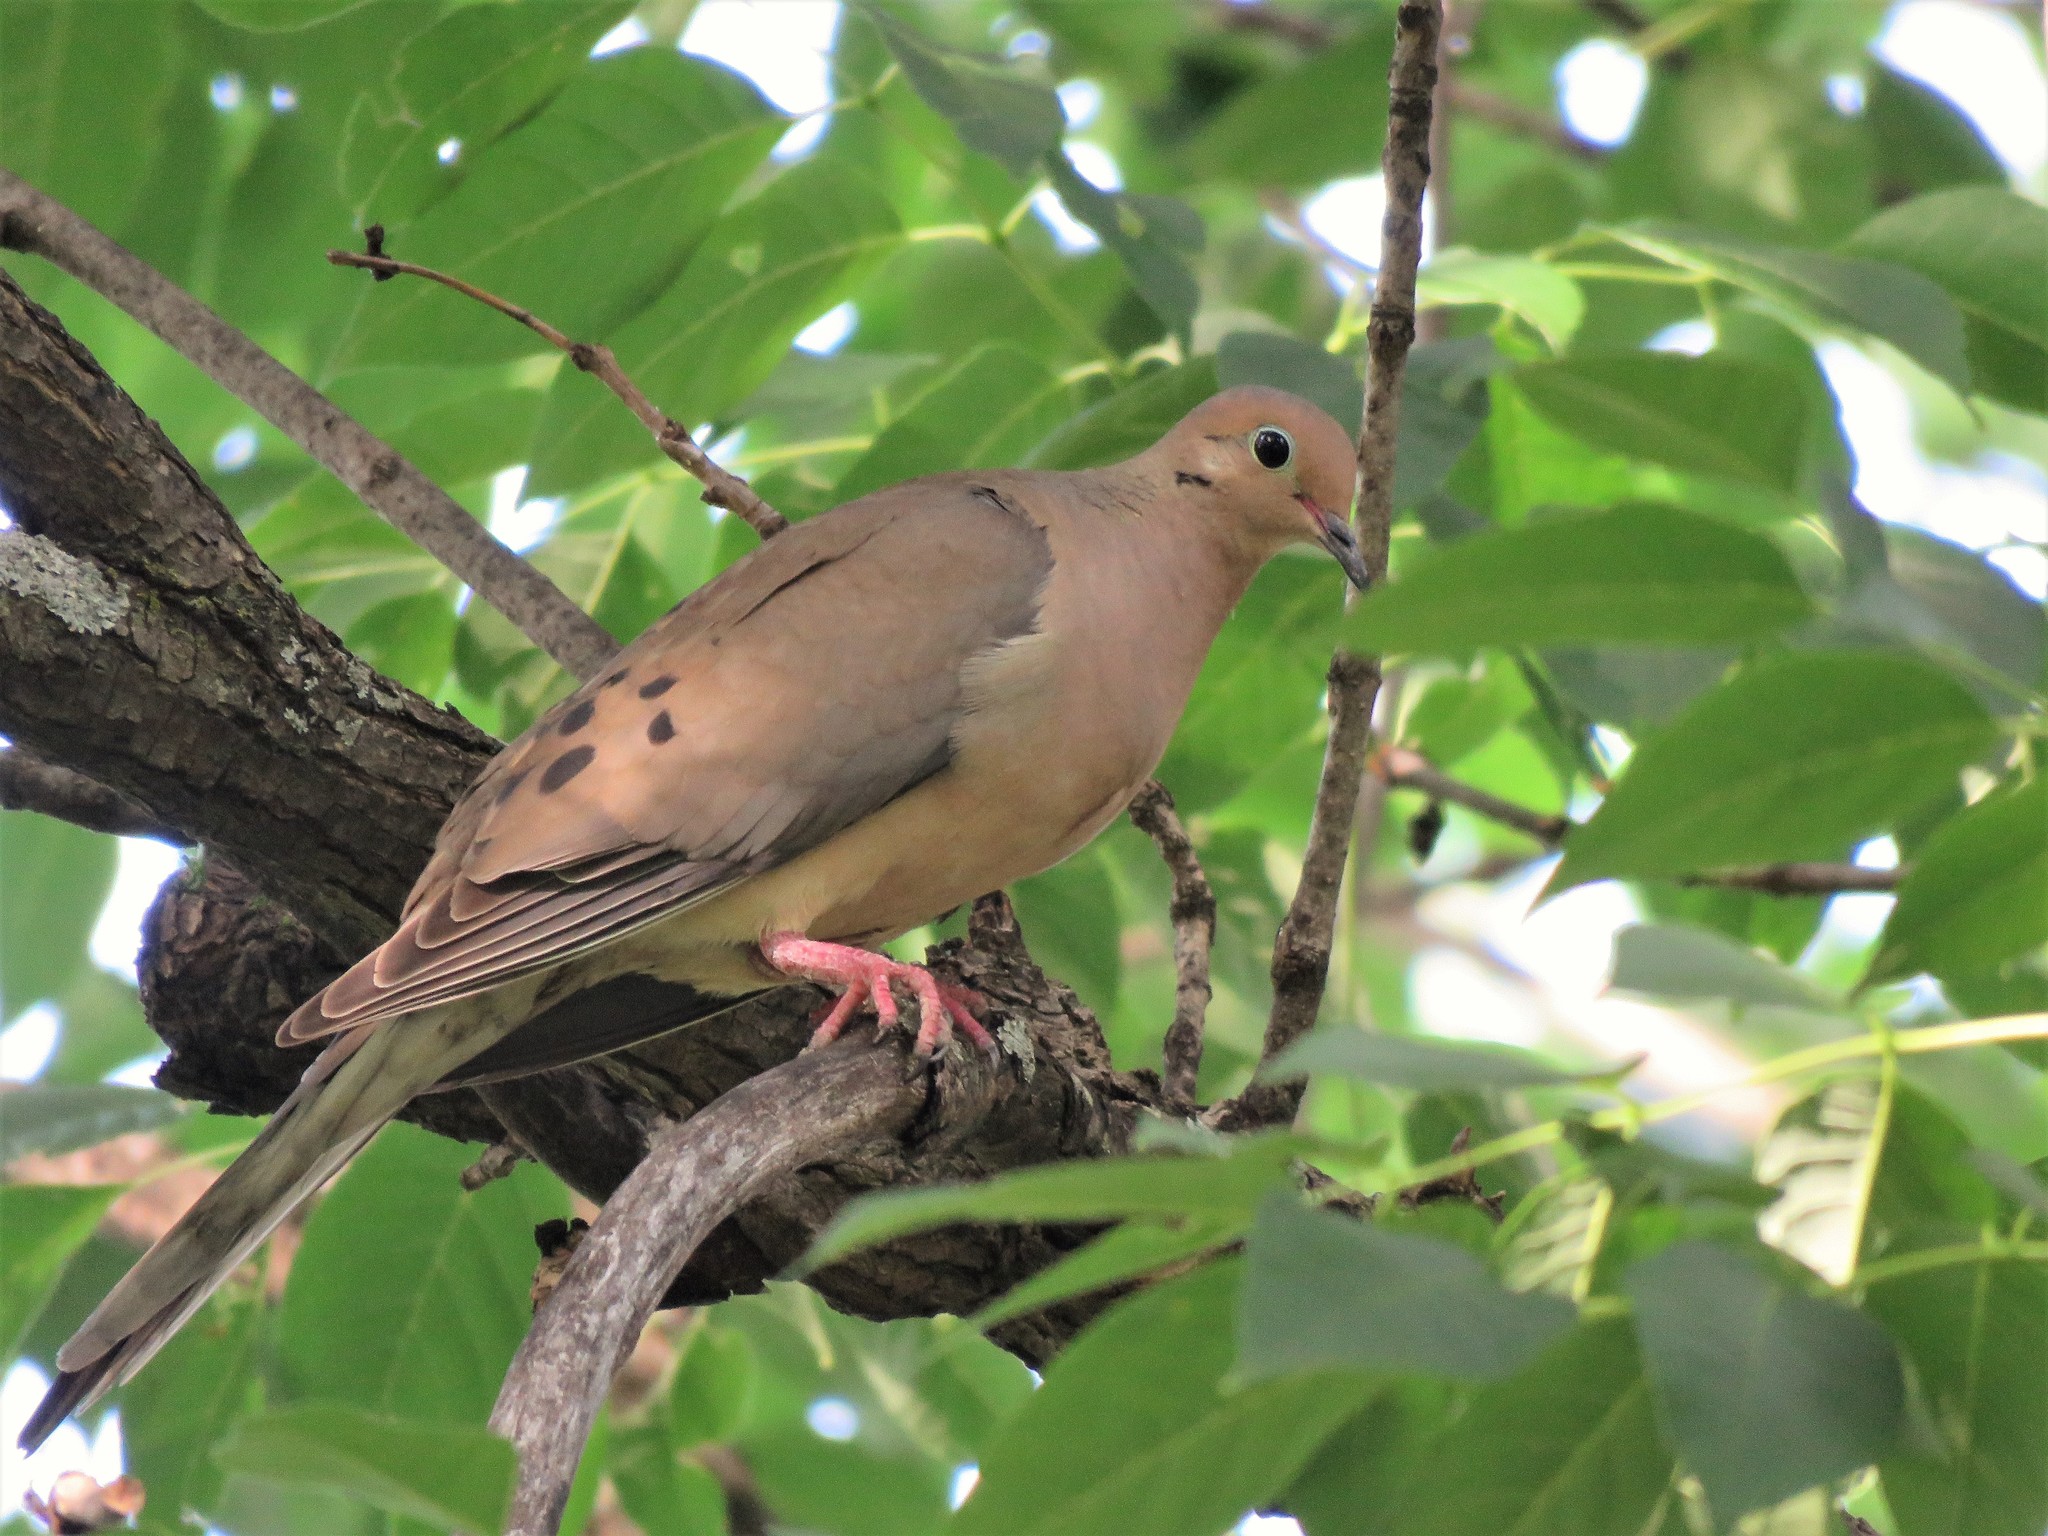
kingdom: Animalia
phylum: Chordata
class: Aves
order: Columbiformes
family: Columbidae
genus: Zenaida
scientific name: Zenaida macroura
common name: Mourning dove
